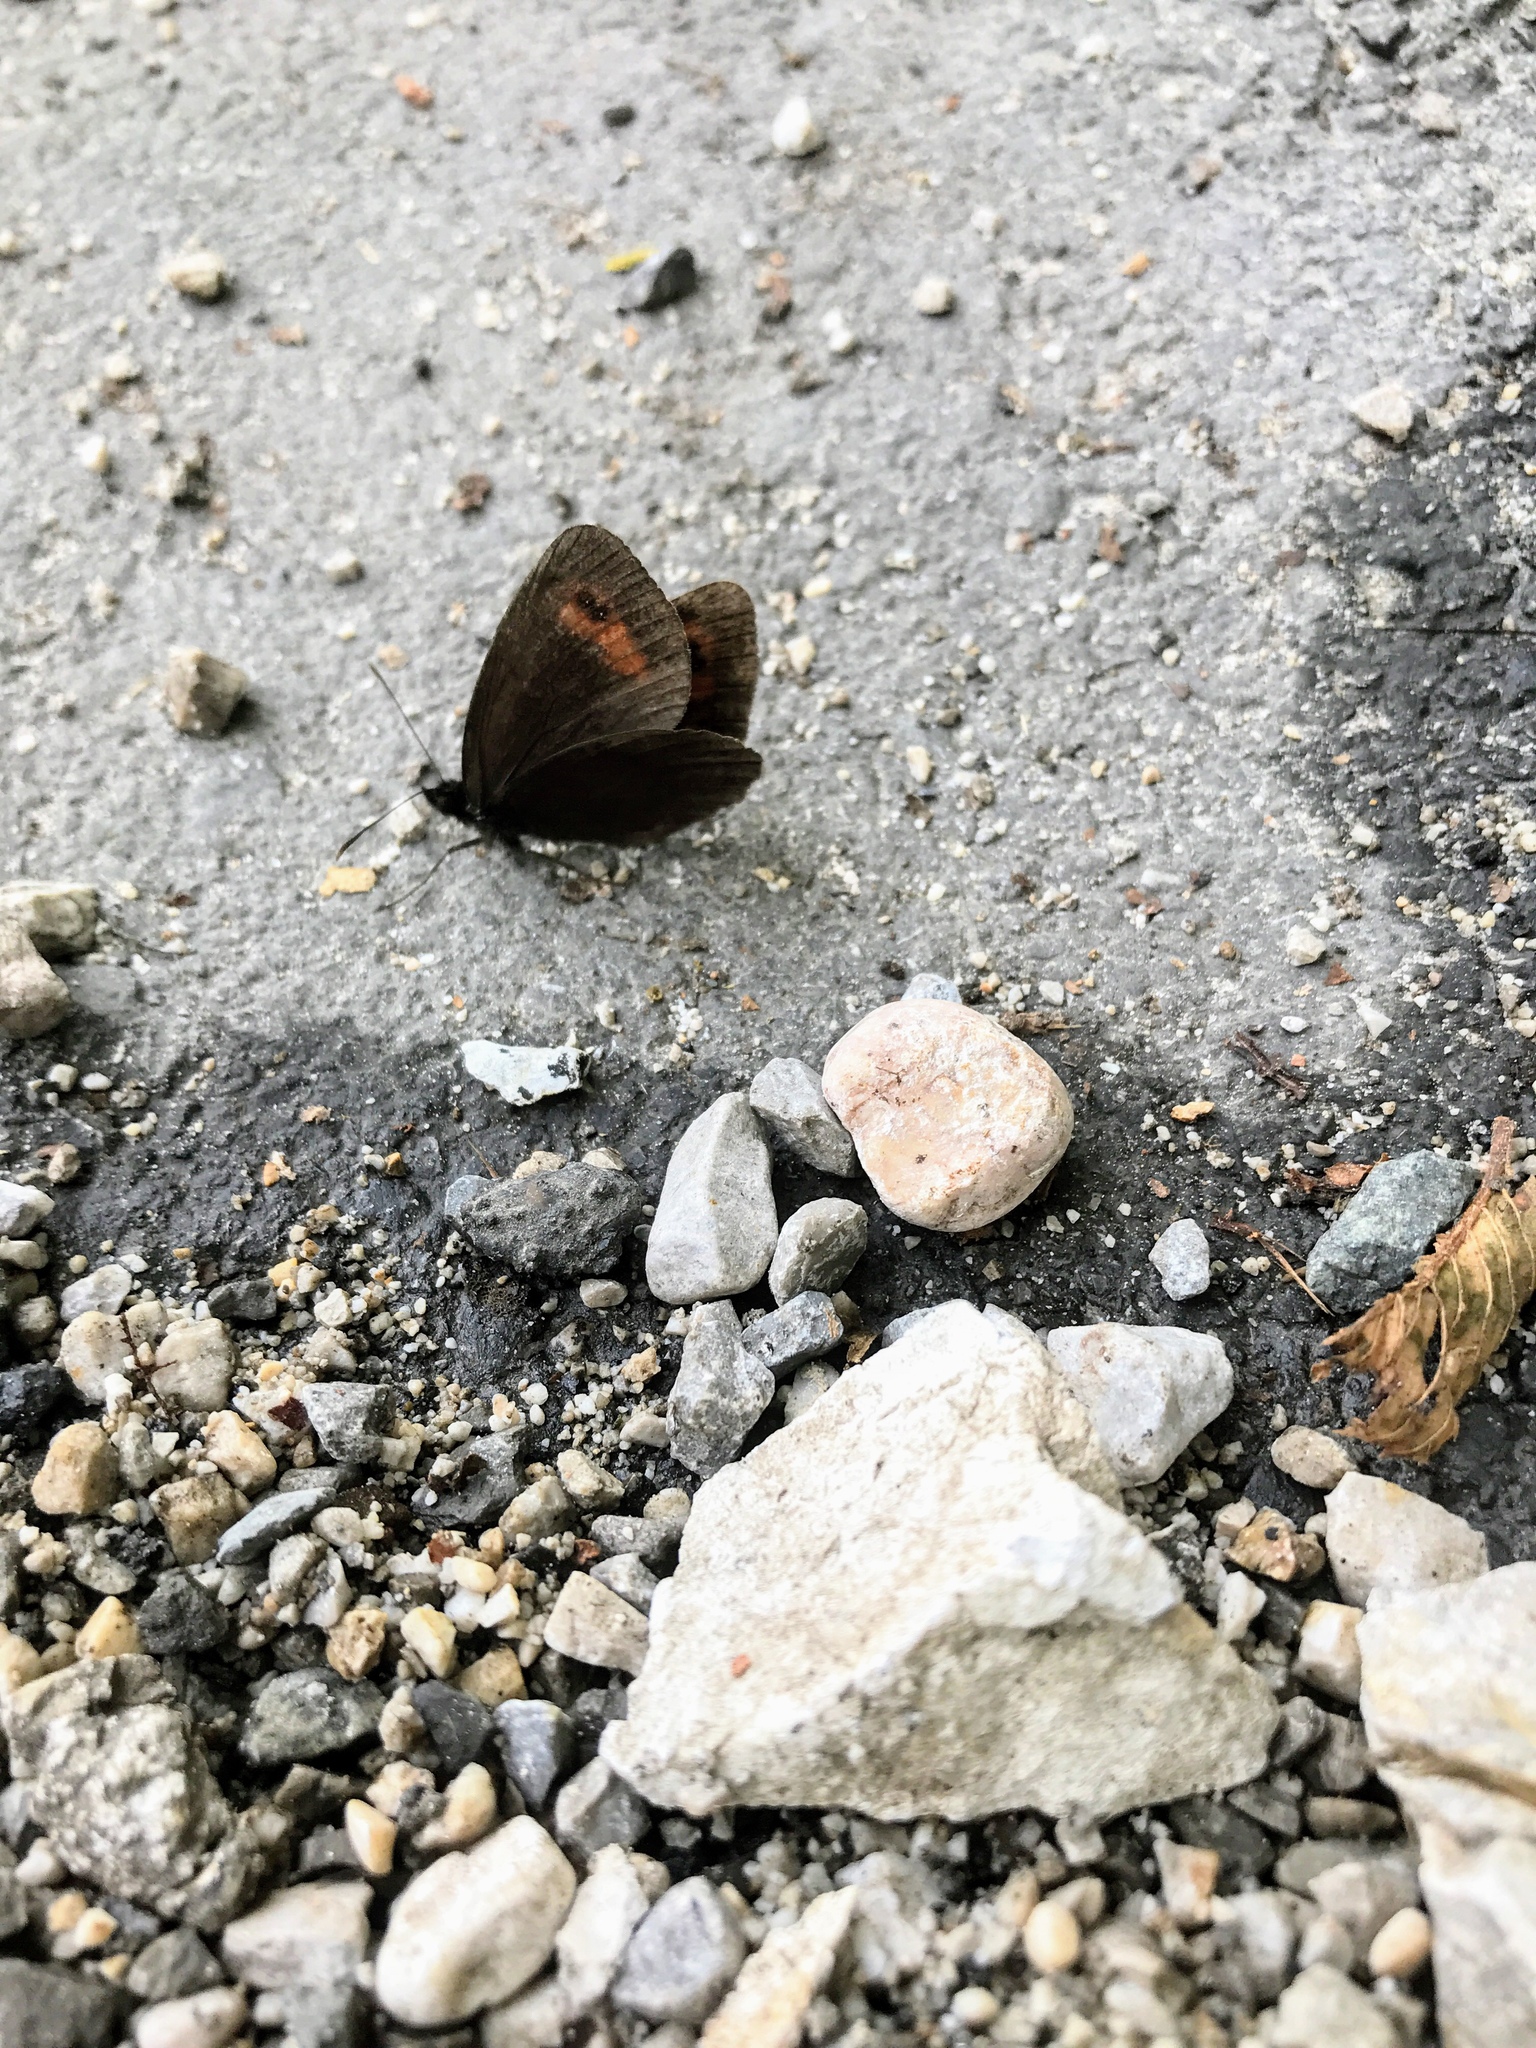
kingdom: Animalia
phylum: Arthropoda
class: Insecta
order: Lepidoptera
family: Nymphalidae
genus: Erebia
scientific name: Erebia aethiops
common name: Scotch argus
